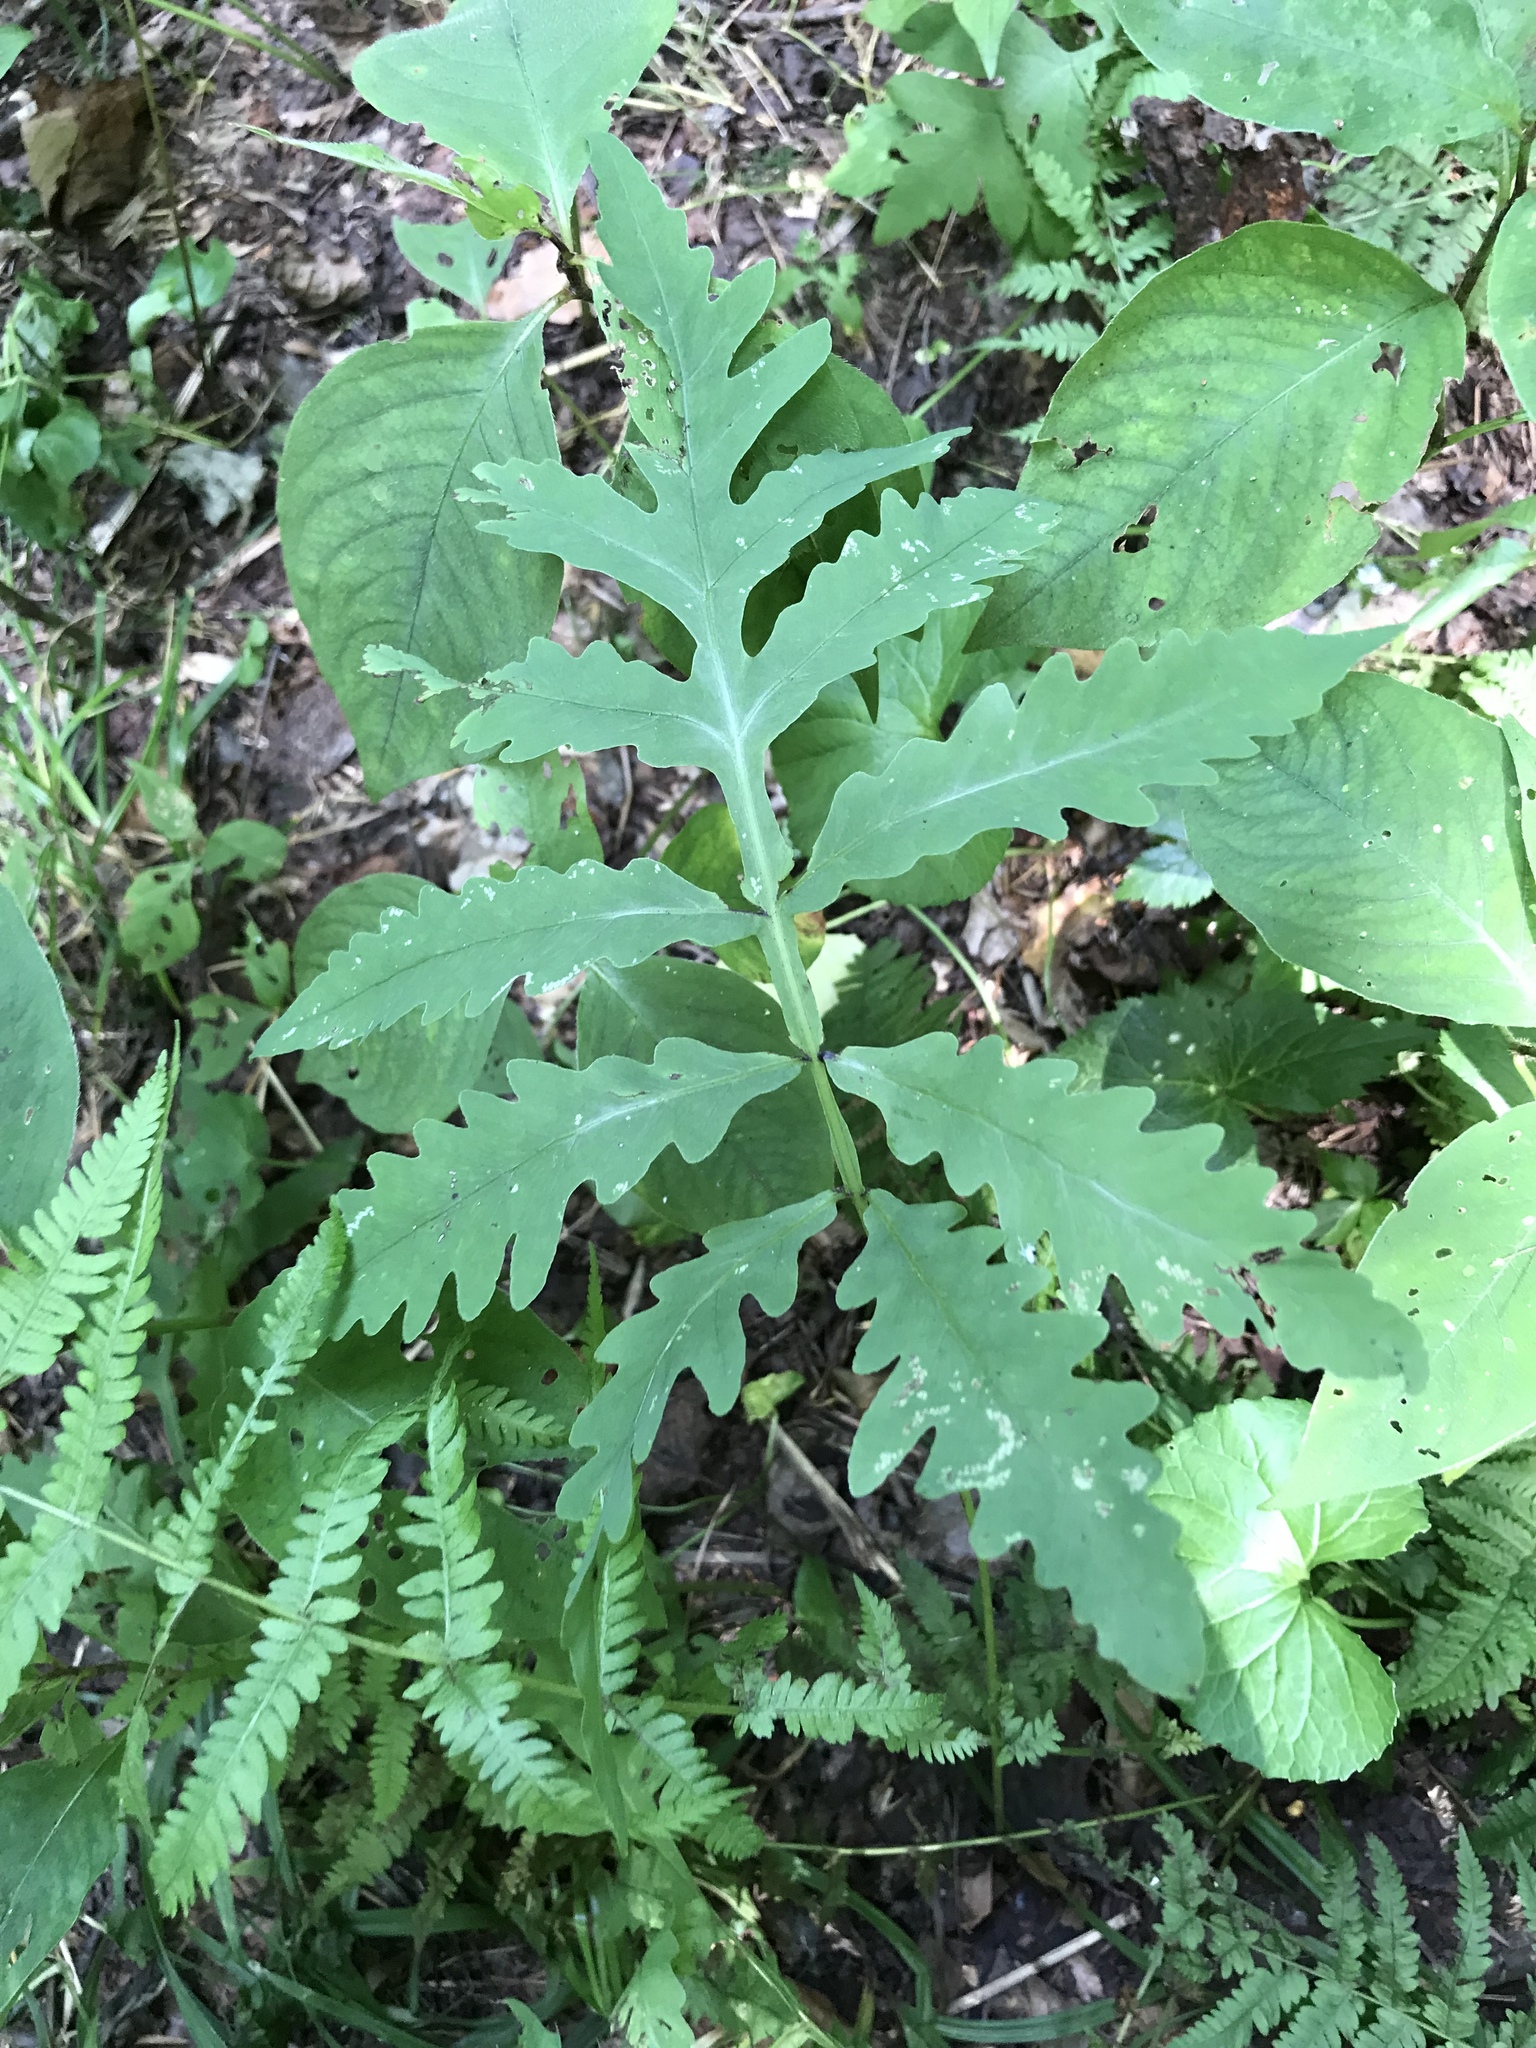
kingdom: Plantae
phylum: Tracheophyta
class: Polypodiopsida
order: Polypodiales
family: Onocleaceae
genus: Onoclea
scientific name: Onoclea sensibilis
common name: Sensitive fern
